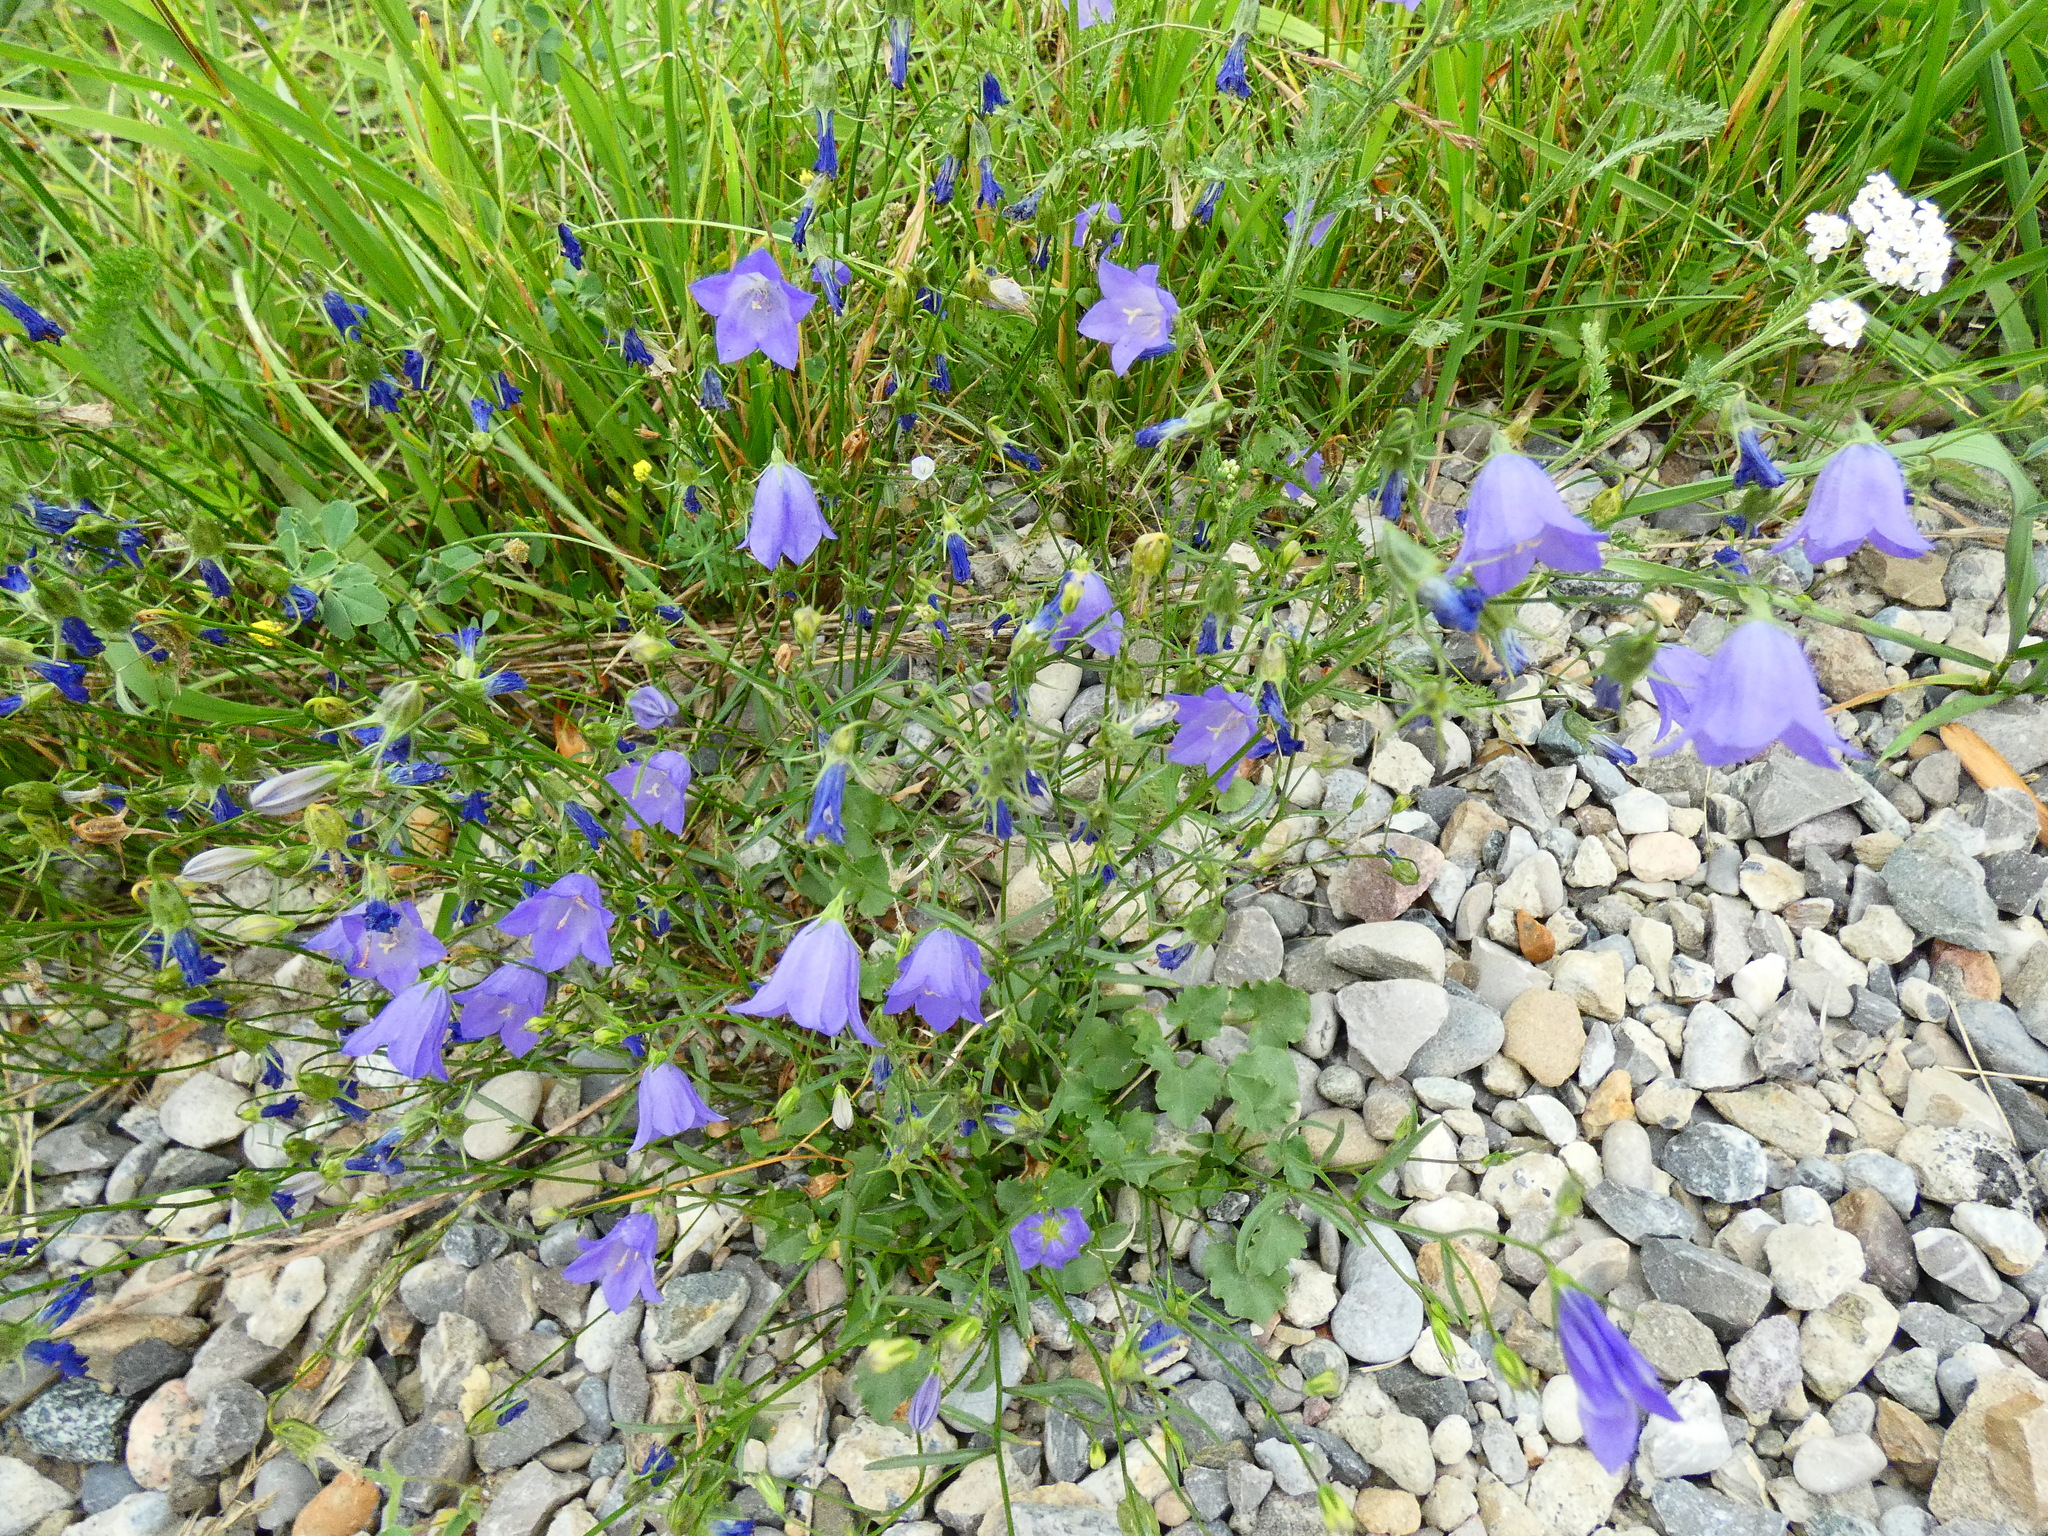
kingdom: Plantae
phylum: Tracheophyta
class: Magnoliopsida
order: Asterales
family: Campanulaceae
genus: Campanula
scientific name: Campanula rotundifolia
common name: Harebell
